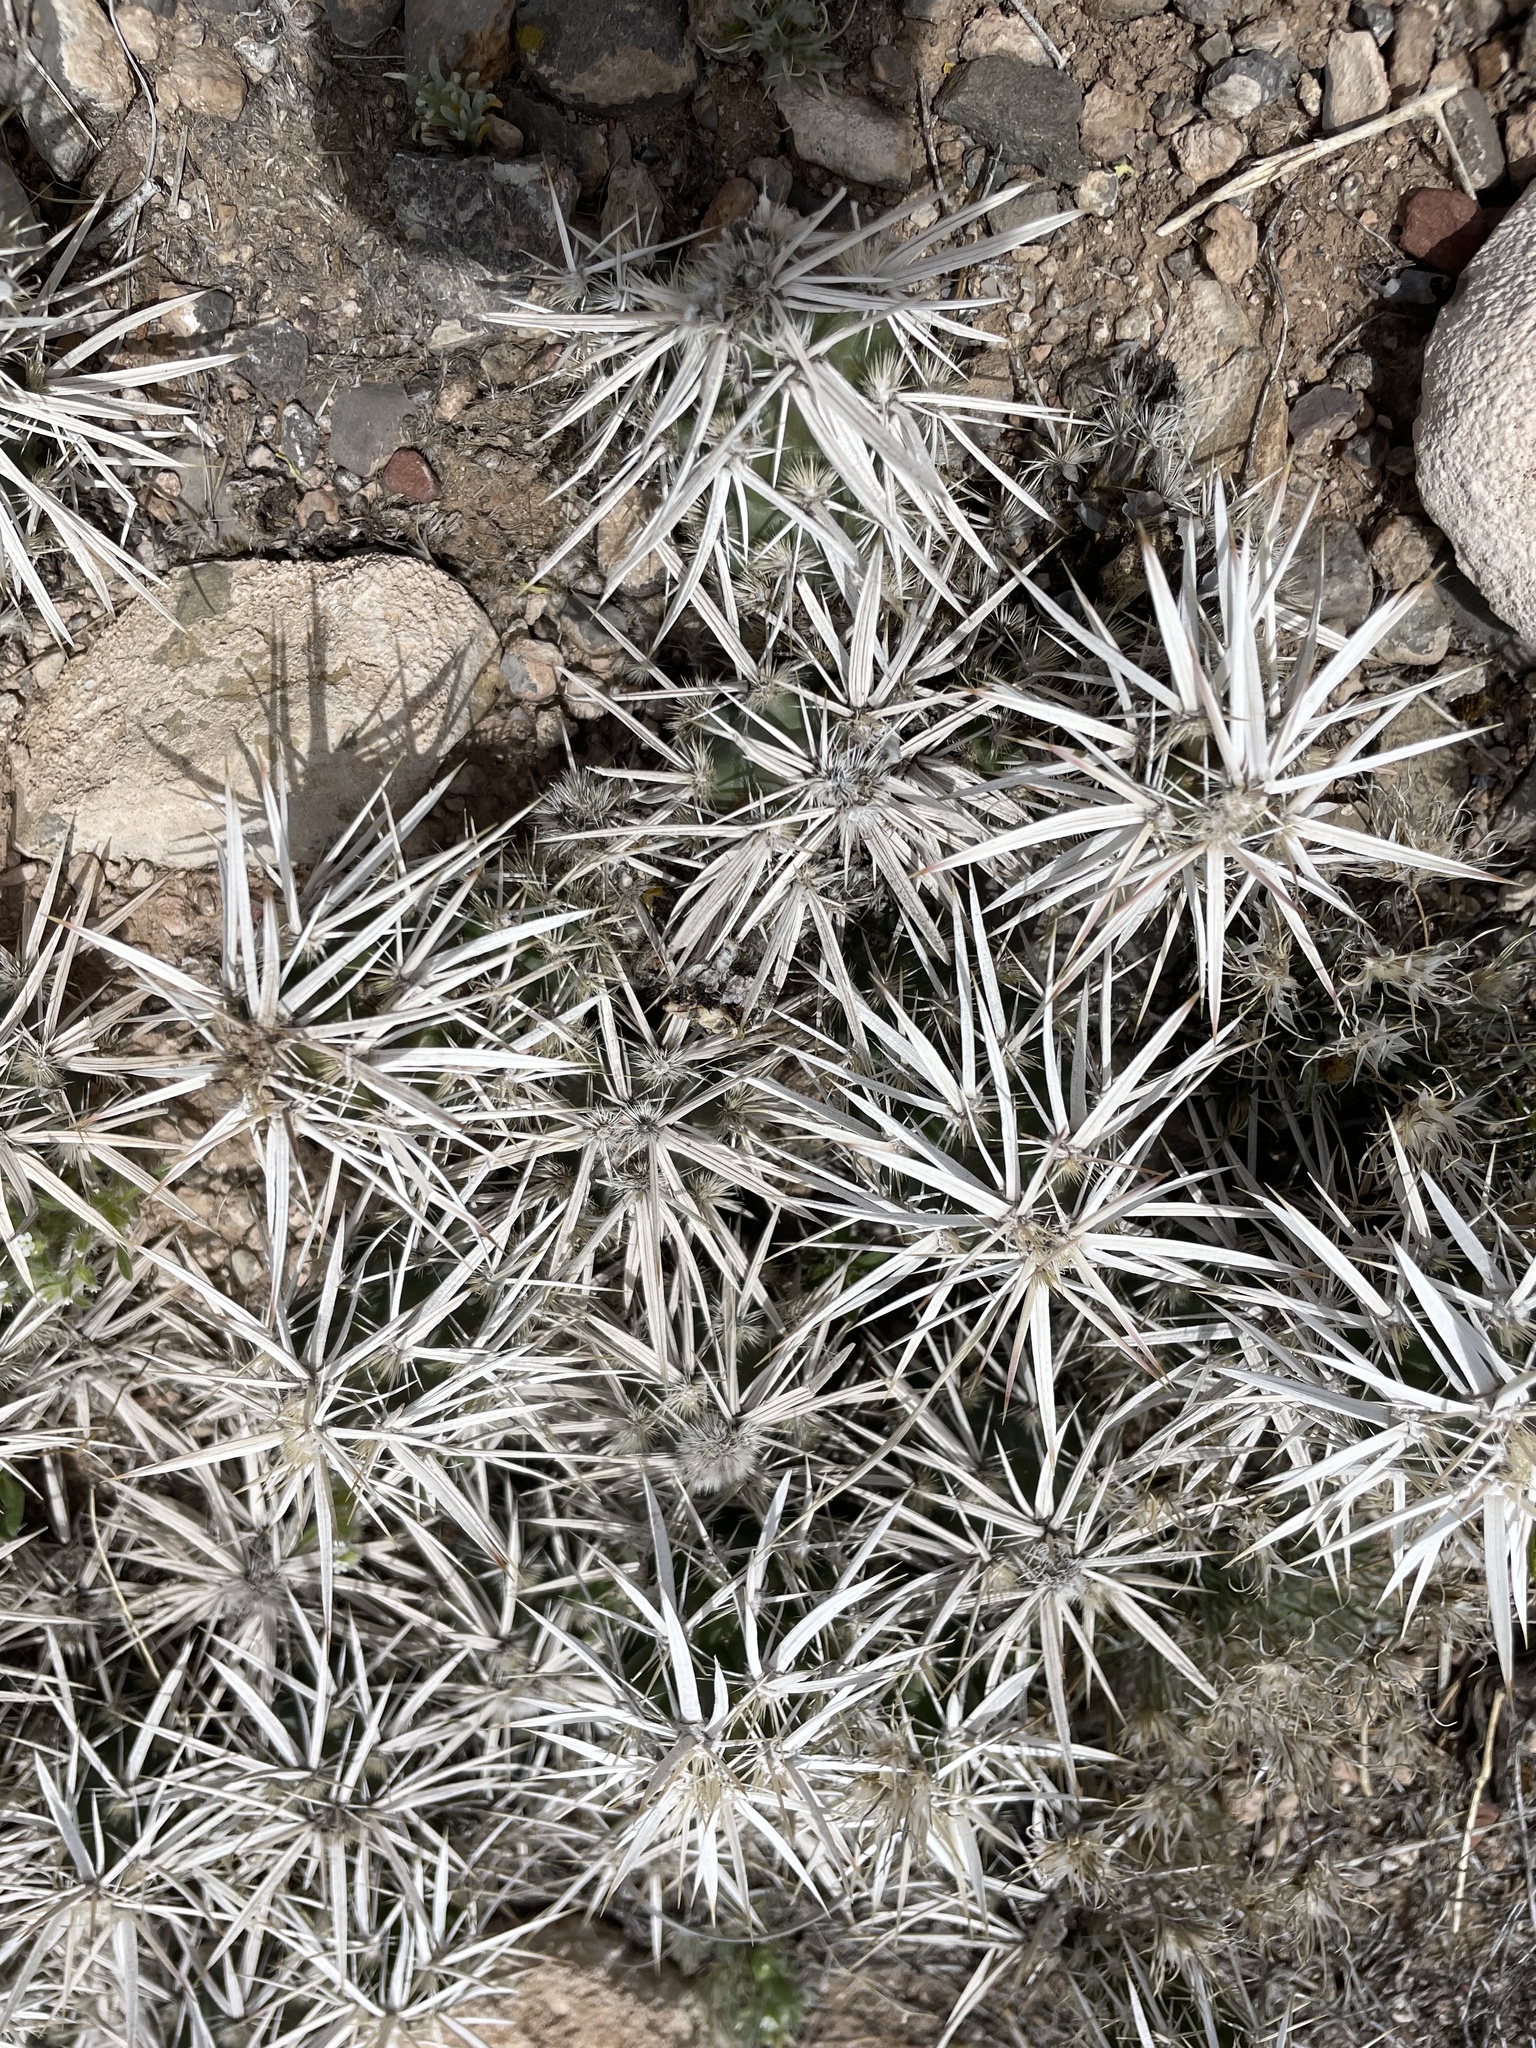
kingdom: Plantae
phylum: Tracheophyta
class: Magnoliopsida
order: Caryophyllales
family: Cactaceae
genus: Grusonia
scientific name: Grusonia clavata
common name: Club cholla
